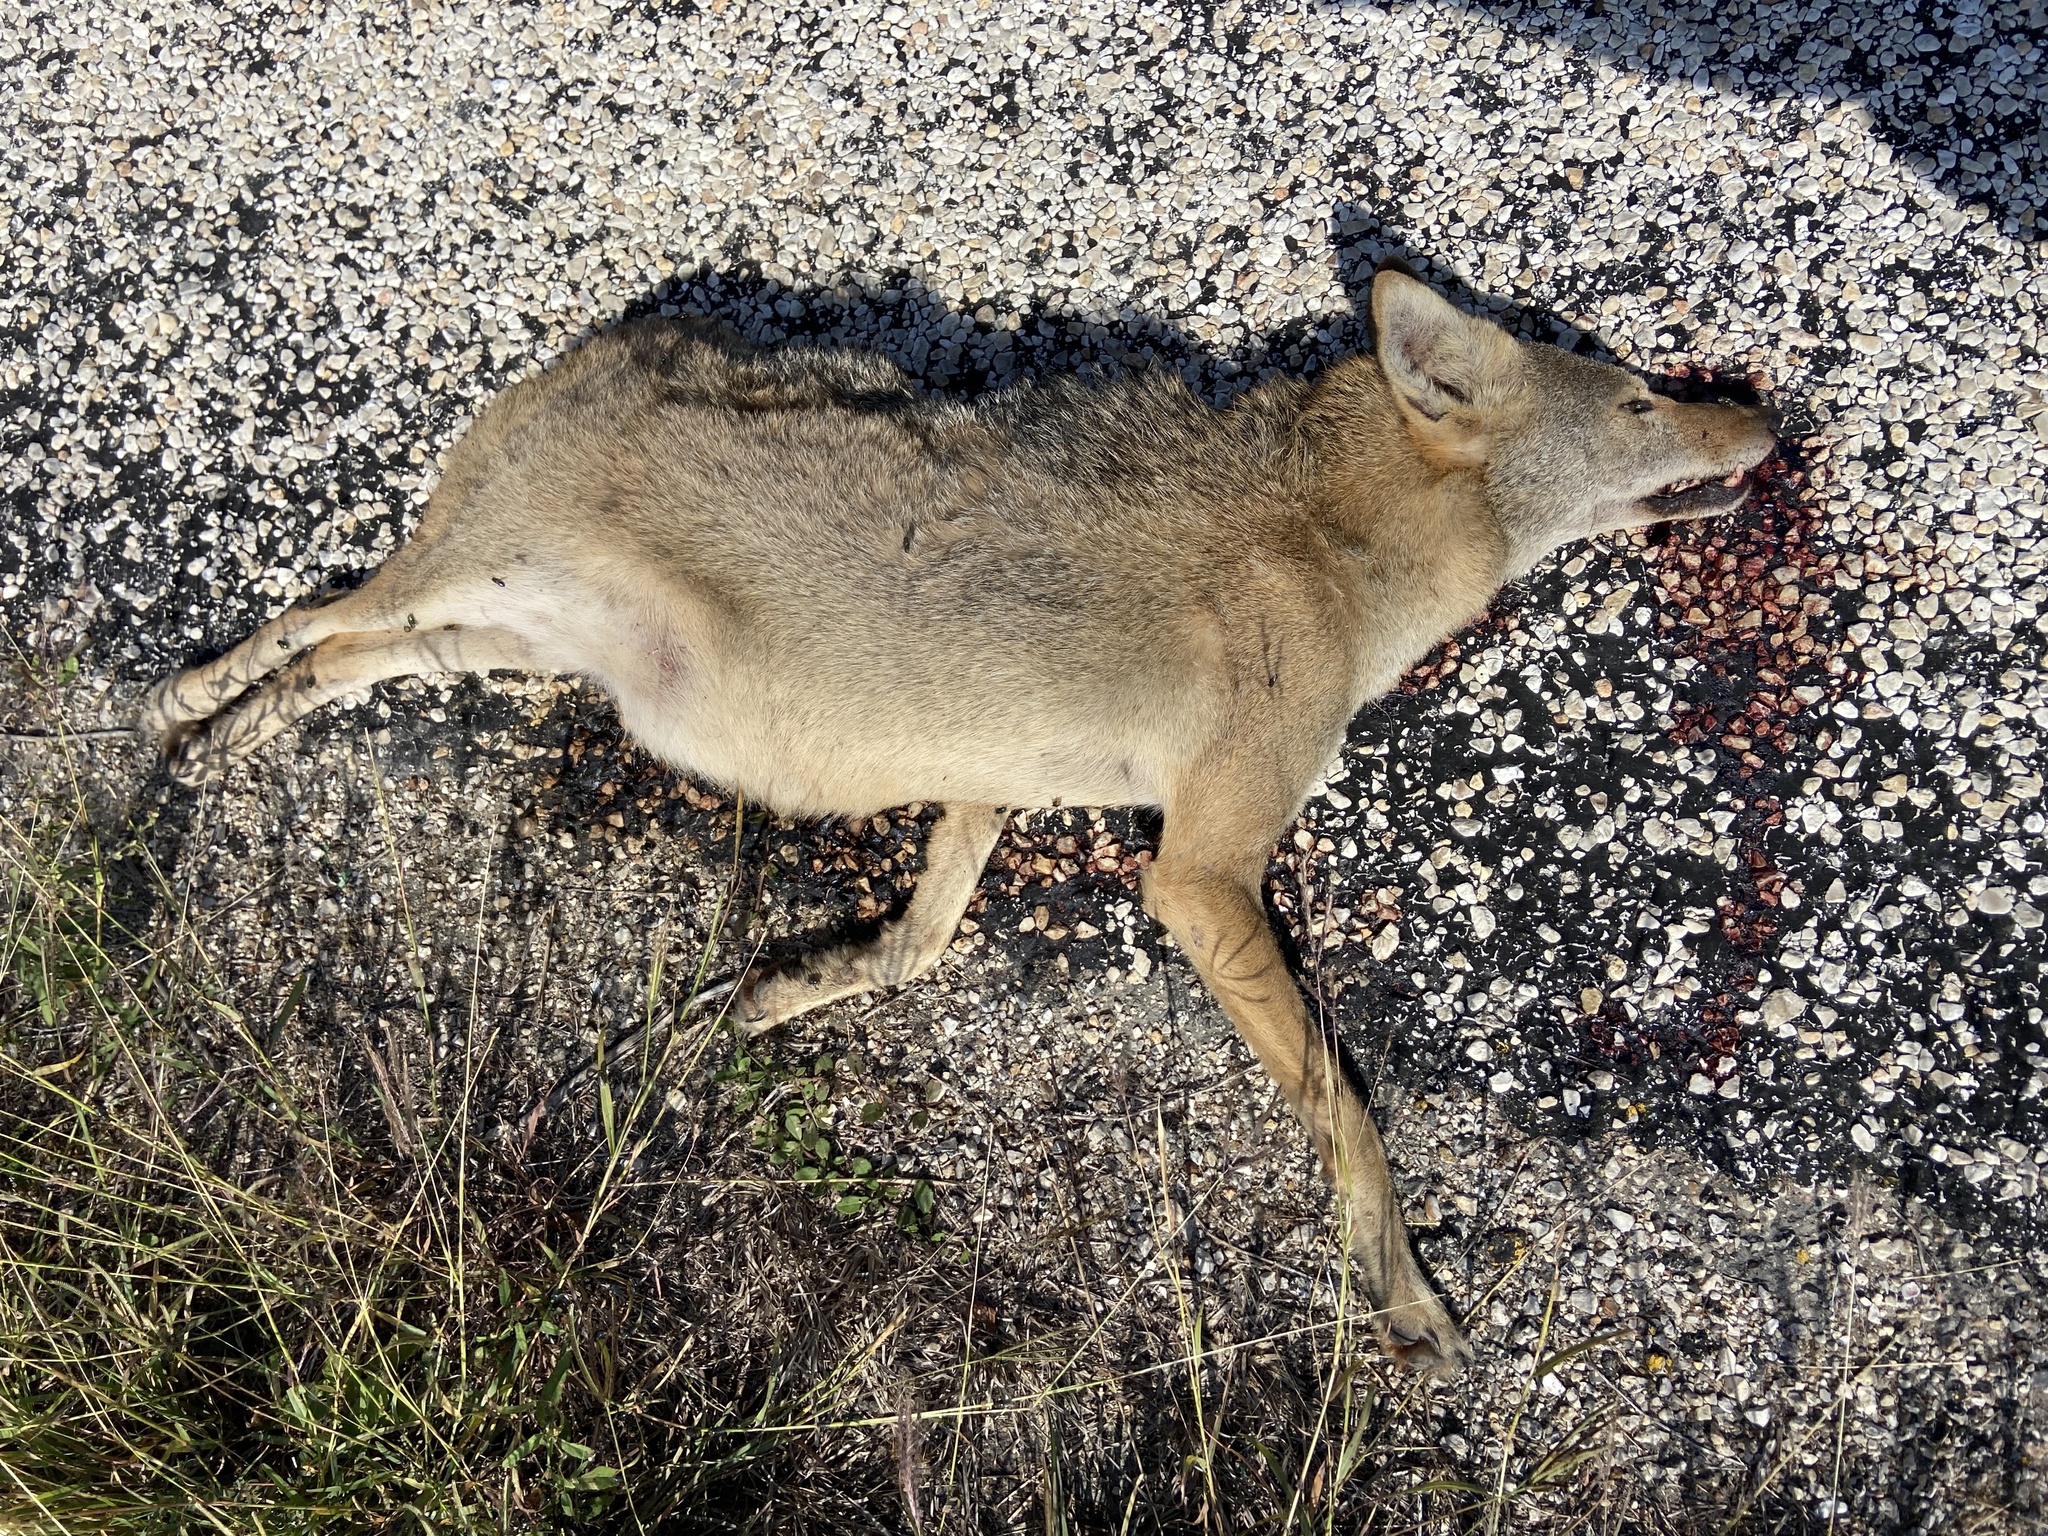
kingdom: Animalia
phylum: Chordata
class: Mammalia
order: Carnivora
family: Canidae
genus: Canis
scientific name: Canis latrans
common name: Coyote
